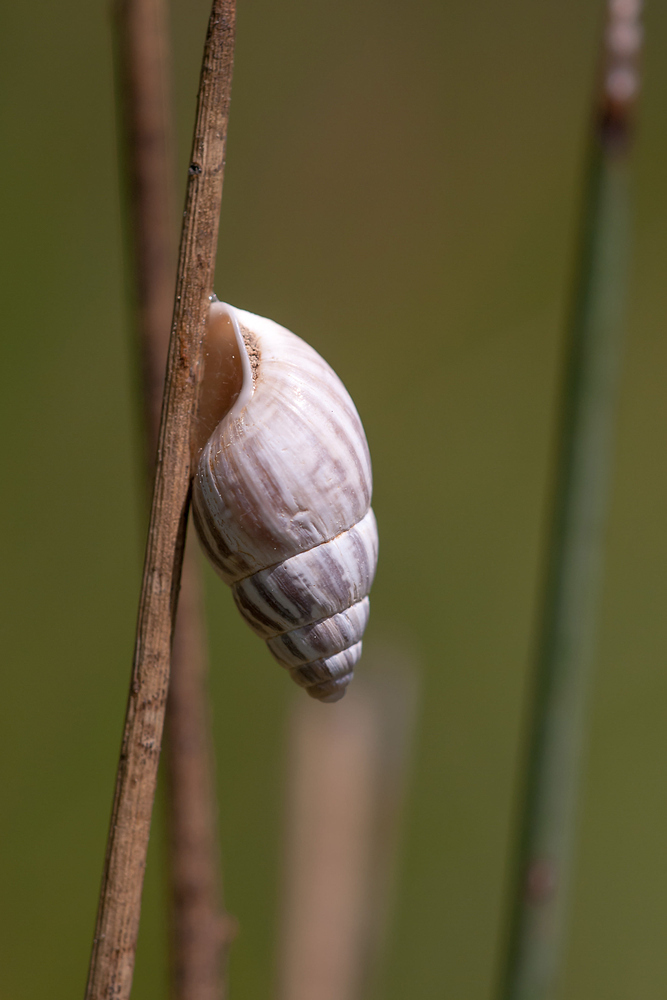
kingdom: Animalia
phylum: Mollusca
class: Gastropoda
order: Stylommatophora
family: Enidae
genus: Zebrina
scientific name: Zebrina detrita
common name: Large bulin
